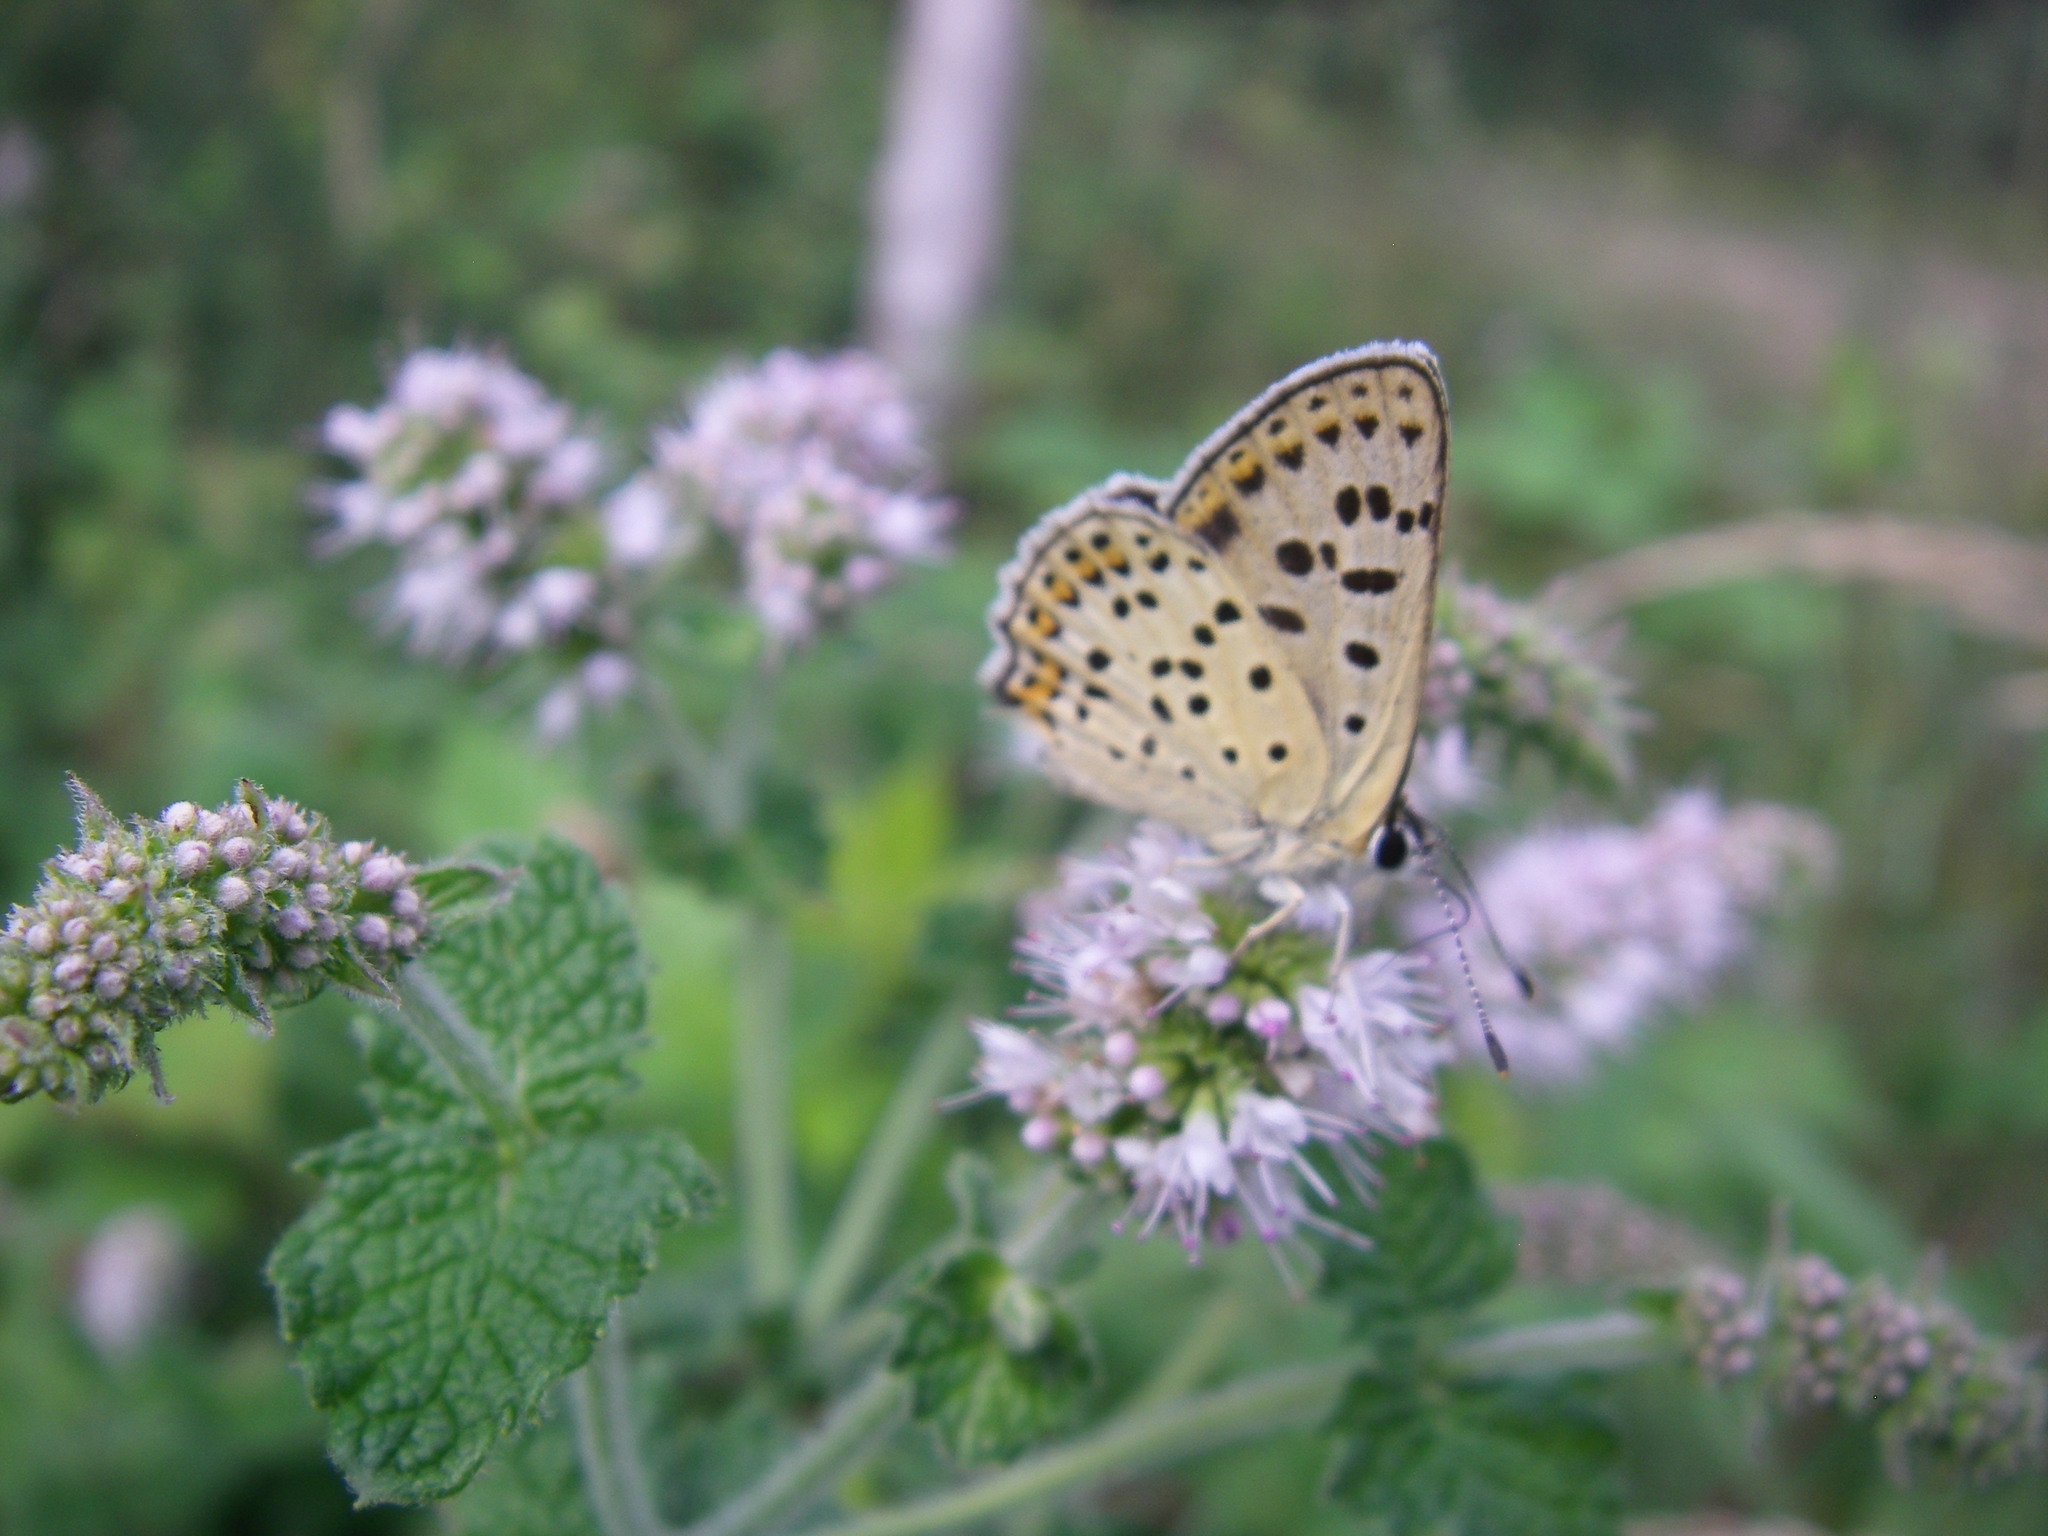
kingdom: Animalia
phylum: Arthropoda
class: Insecta
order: Lepidoptera
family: Lycaenidae
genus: Loweia
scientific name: Loweia tityrus
